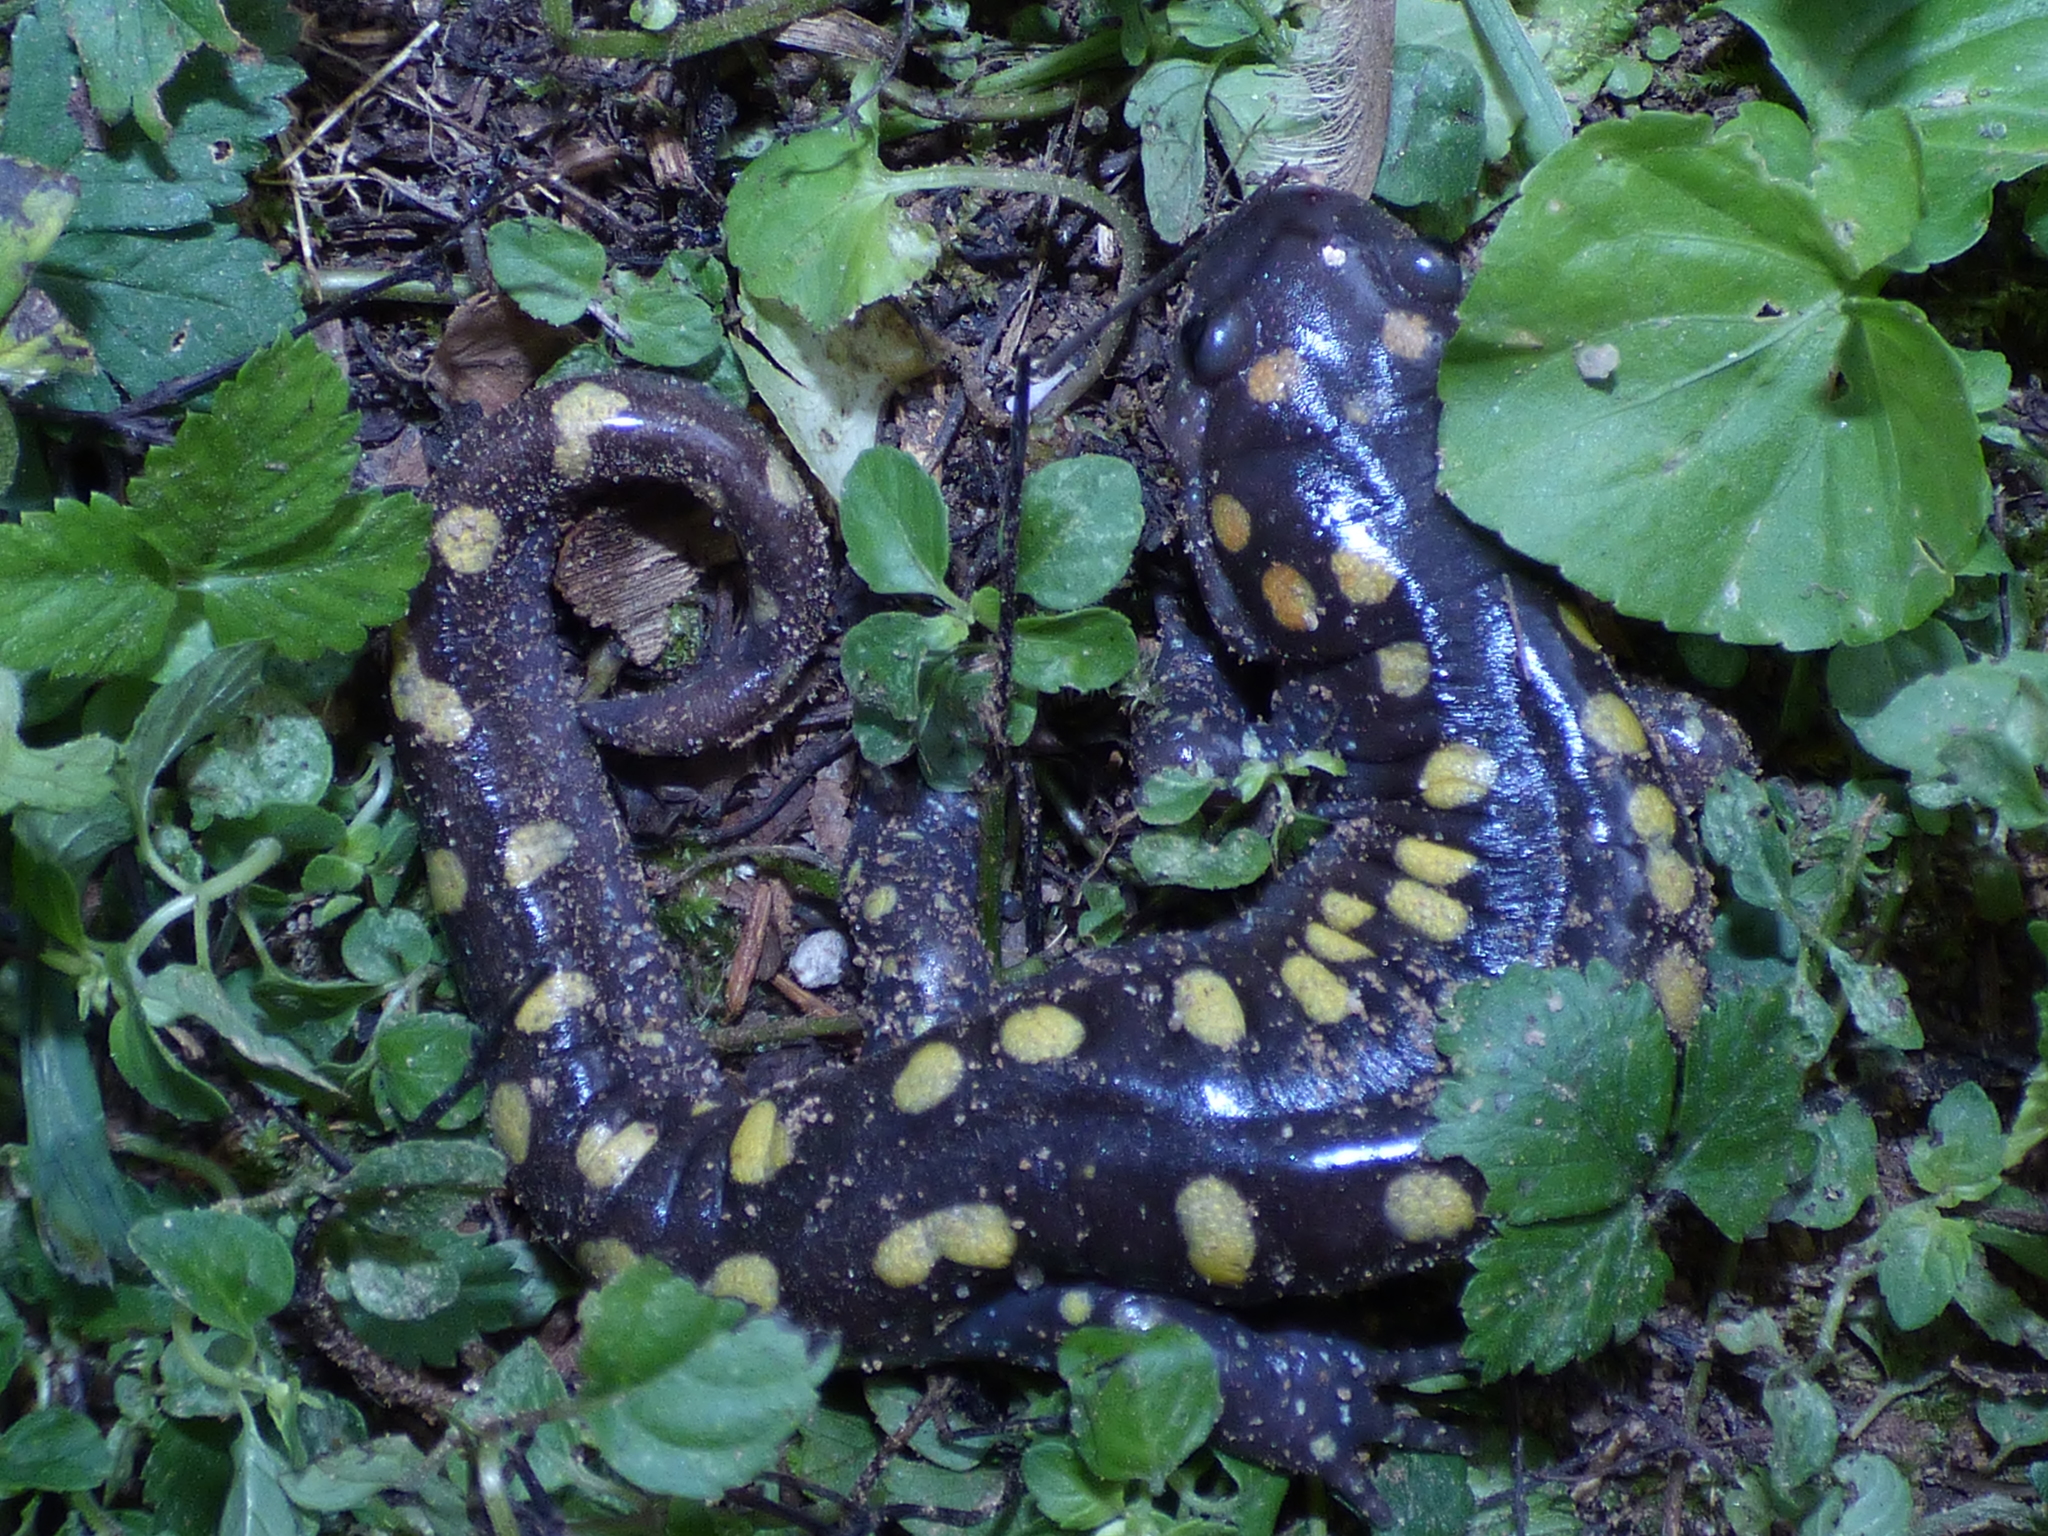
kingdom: Animalia
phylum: Chordata
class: Amphibia
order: Caudata
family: Ambystomatidae
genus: Ambystoma
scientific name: Ambystoma maculatum
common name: Spotted salamander
